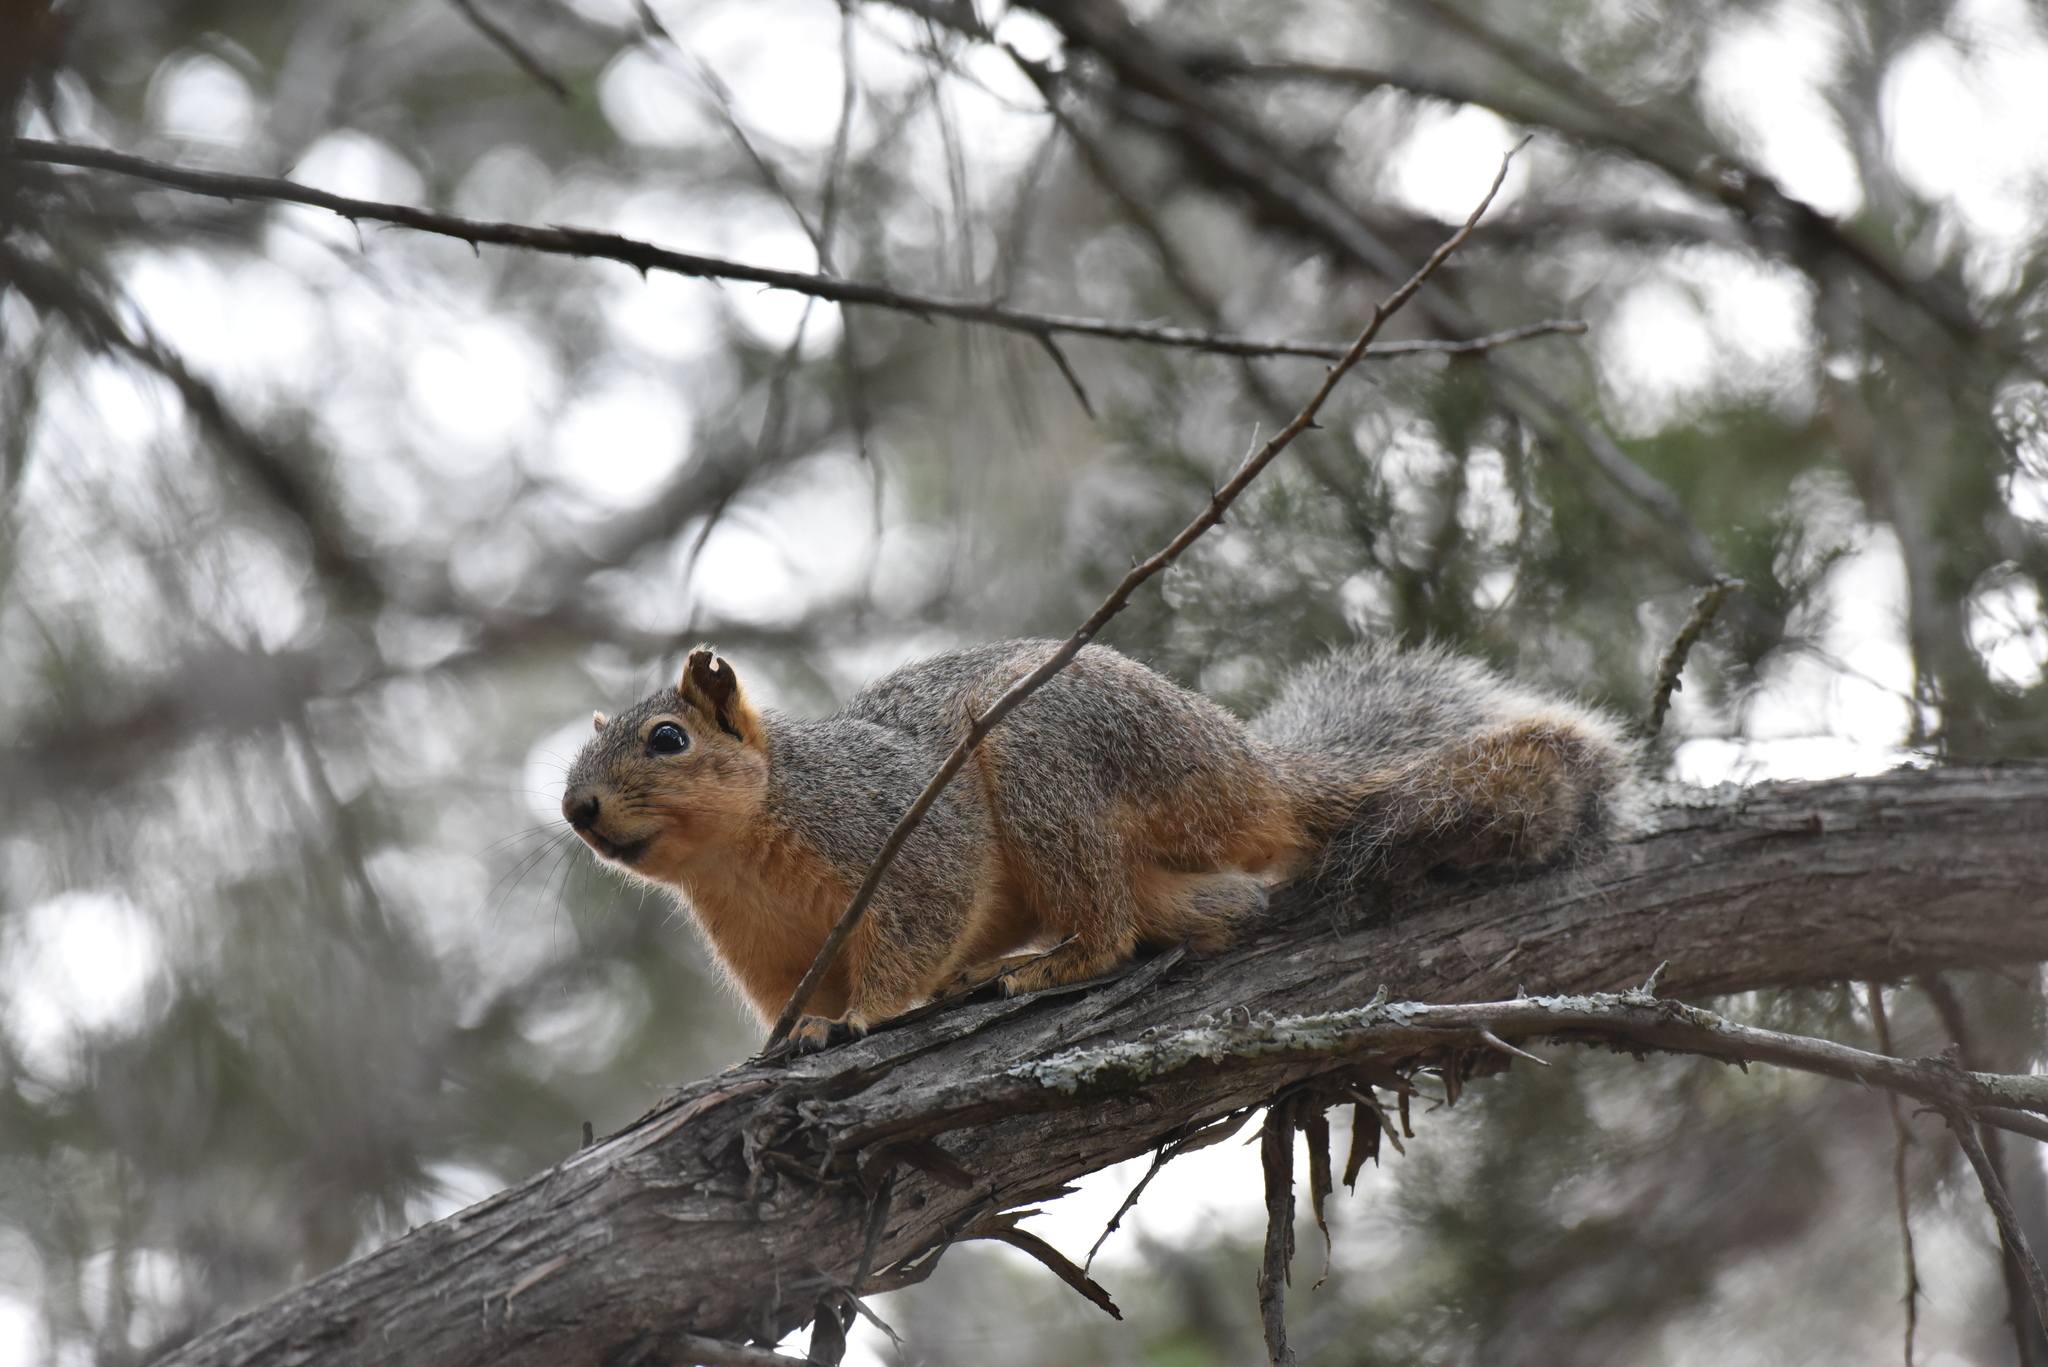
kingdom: Animalia
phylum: Chordata
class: Mammalia
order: Rodentia
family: Sciuridae
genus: Sciurus
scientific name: Sciurus niger
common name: Fox squirrel
